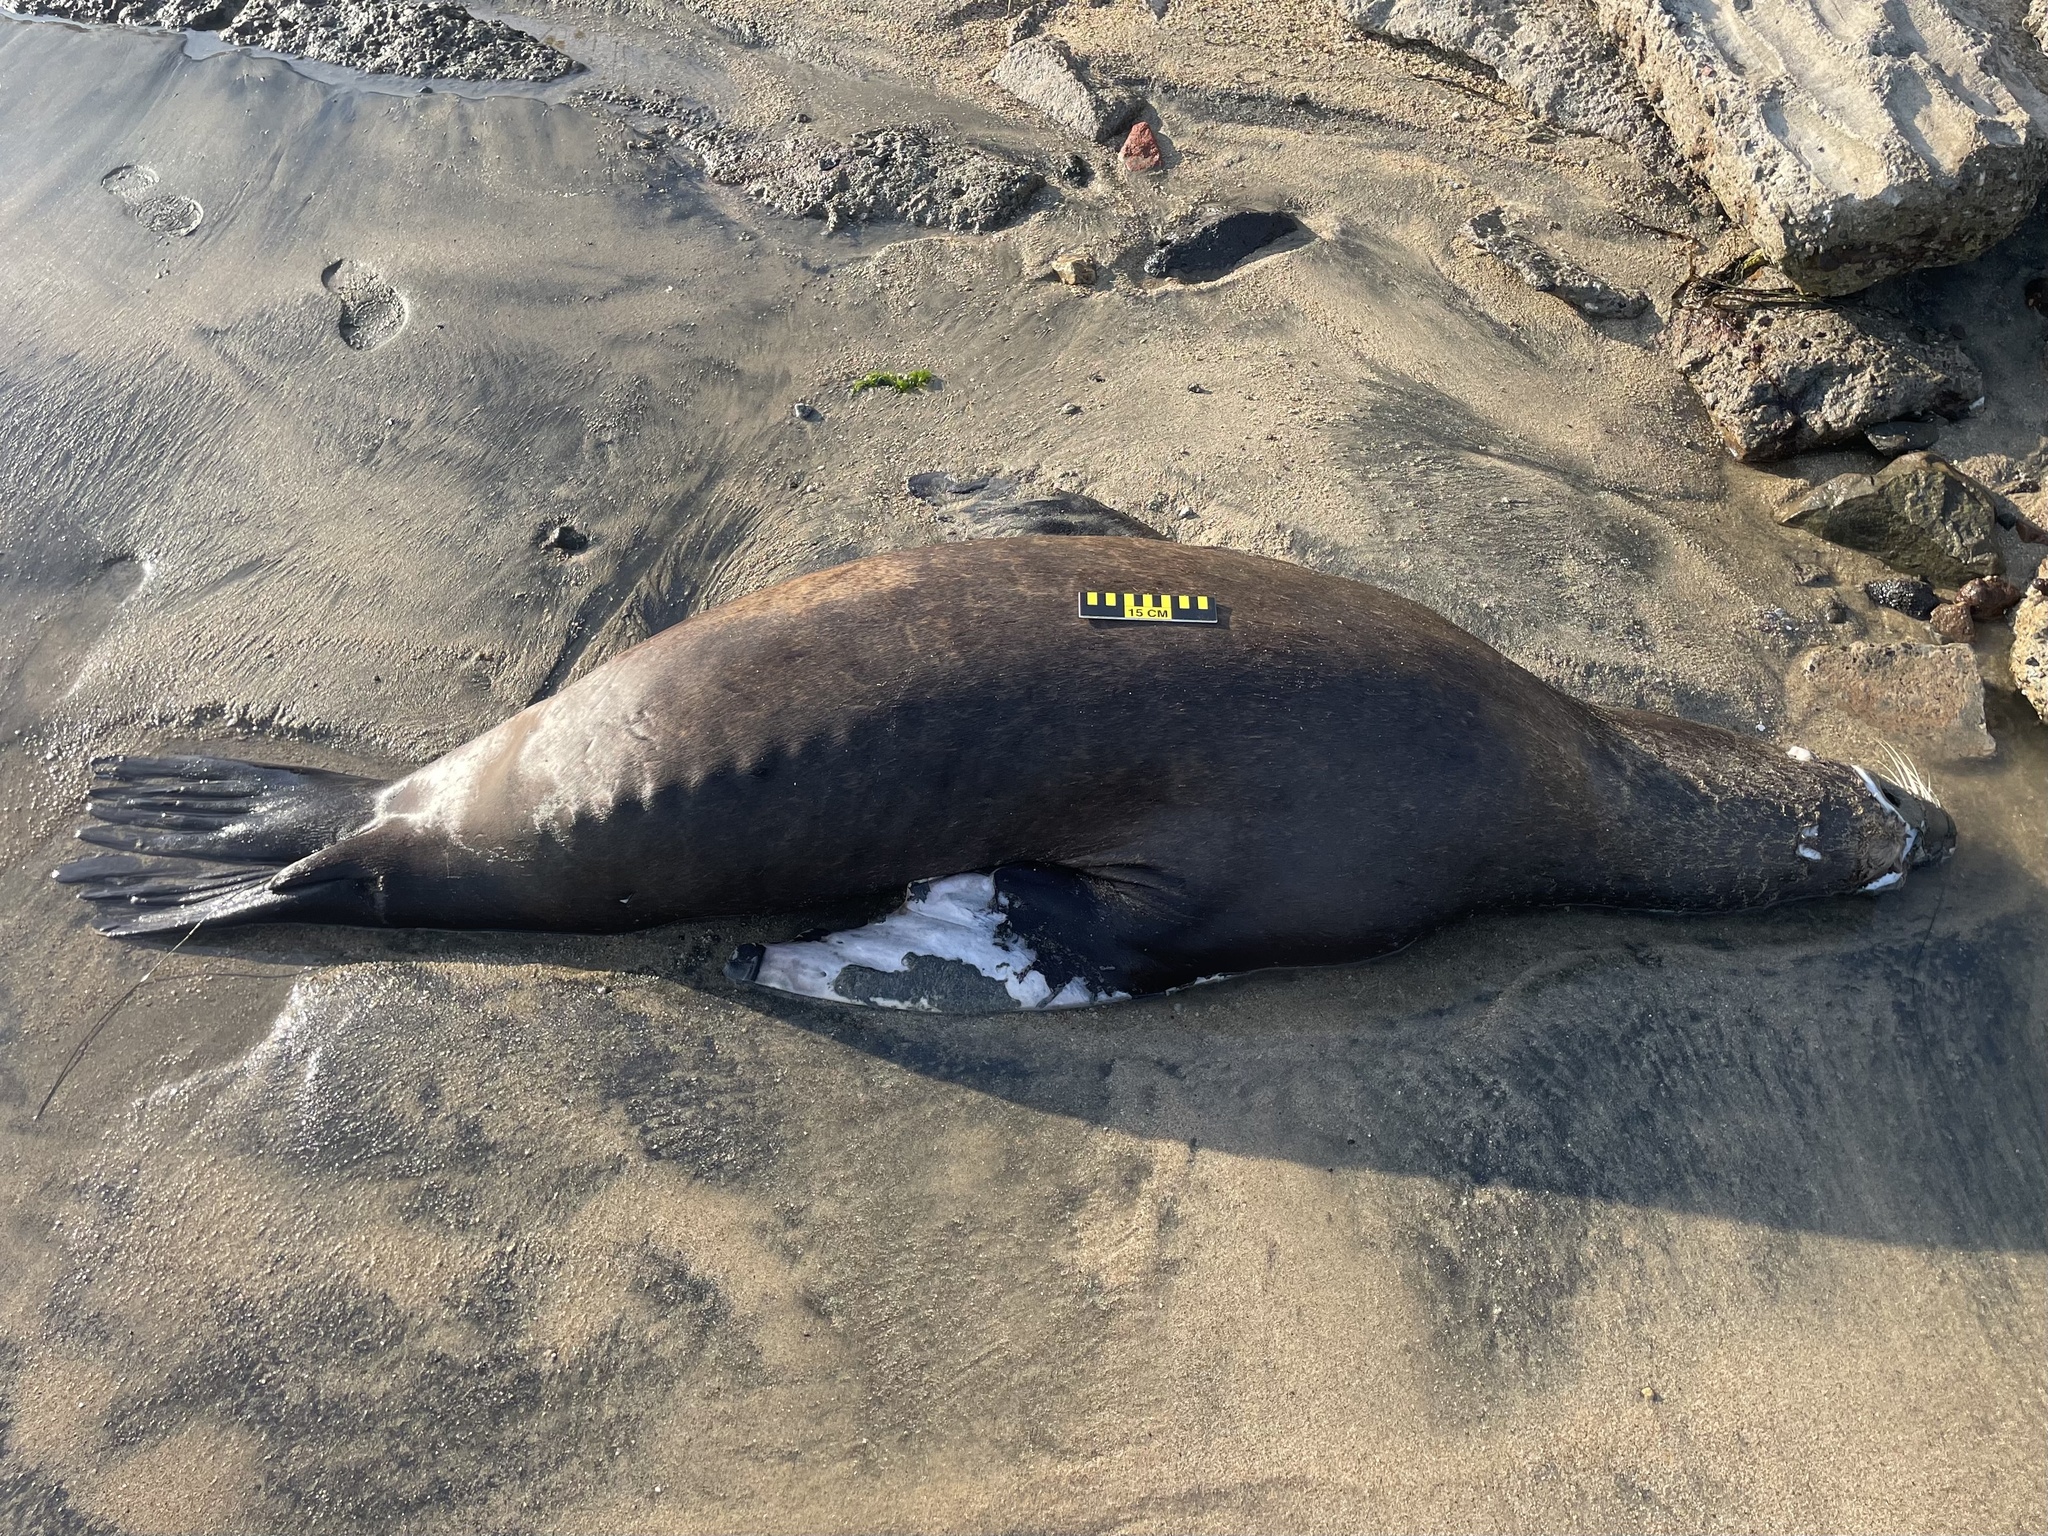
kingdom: Animalia
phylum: Chordata
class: Mammalia
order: Carnivora
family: Otariidae
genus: Zalophus
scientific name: Zalophus californianus
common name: California sea lion
